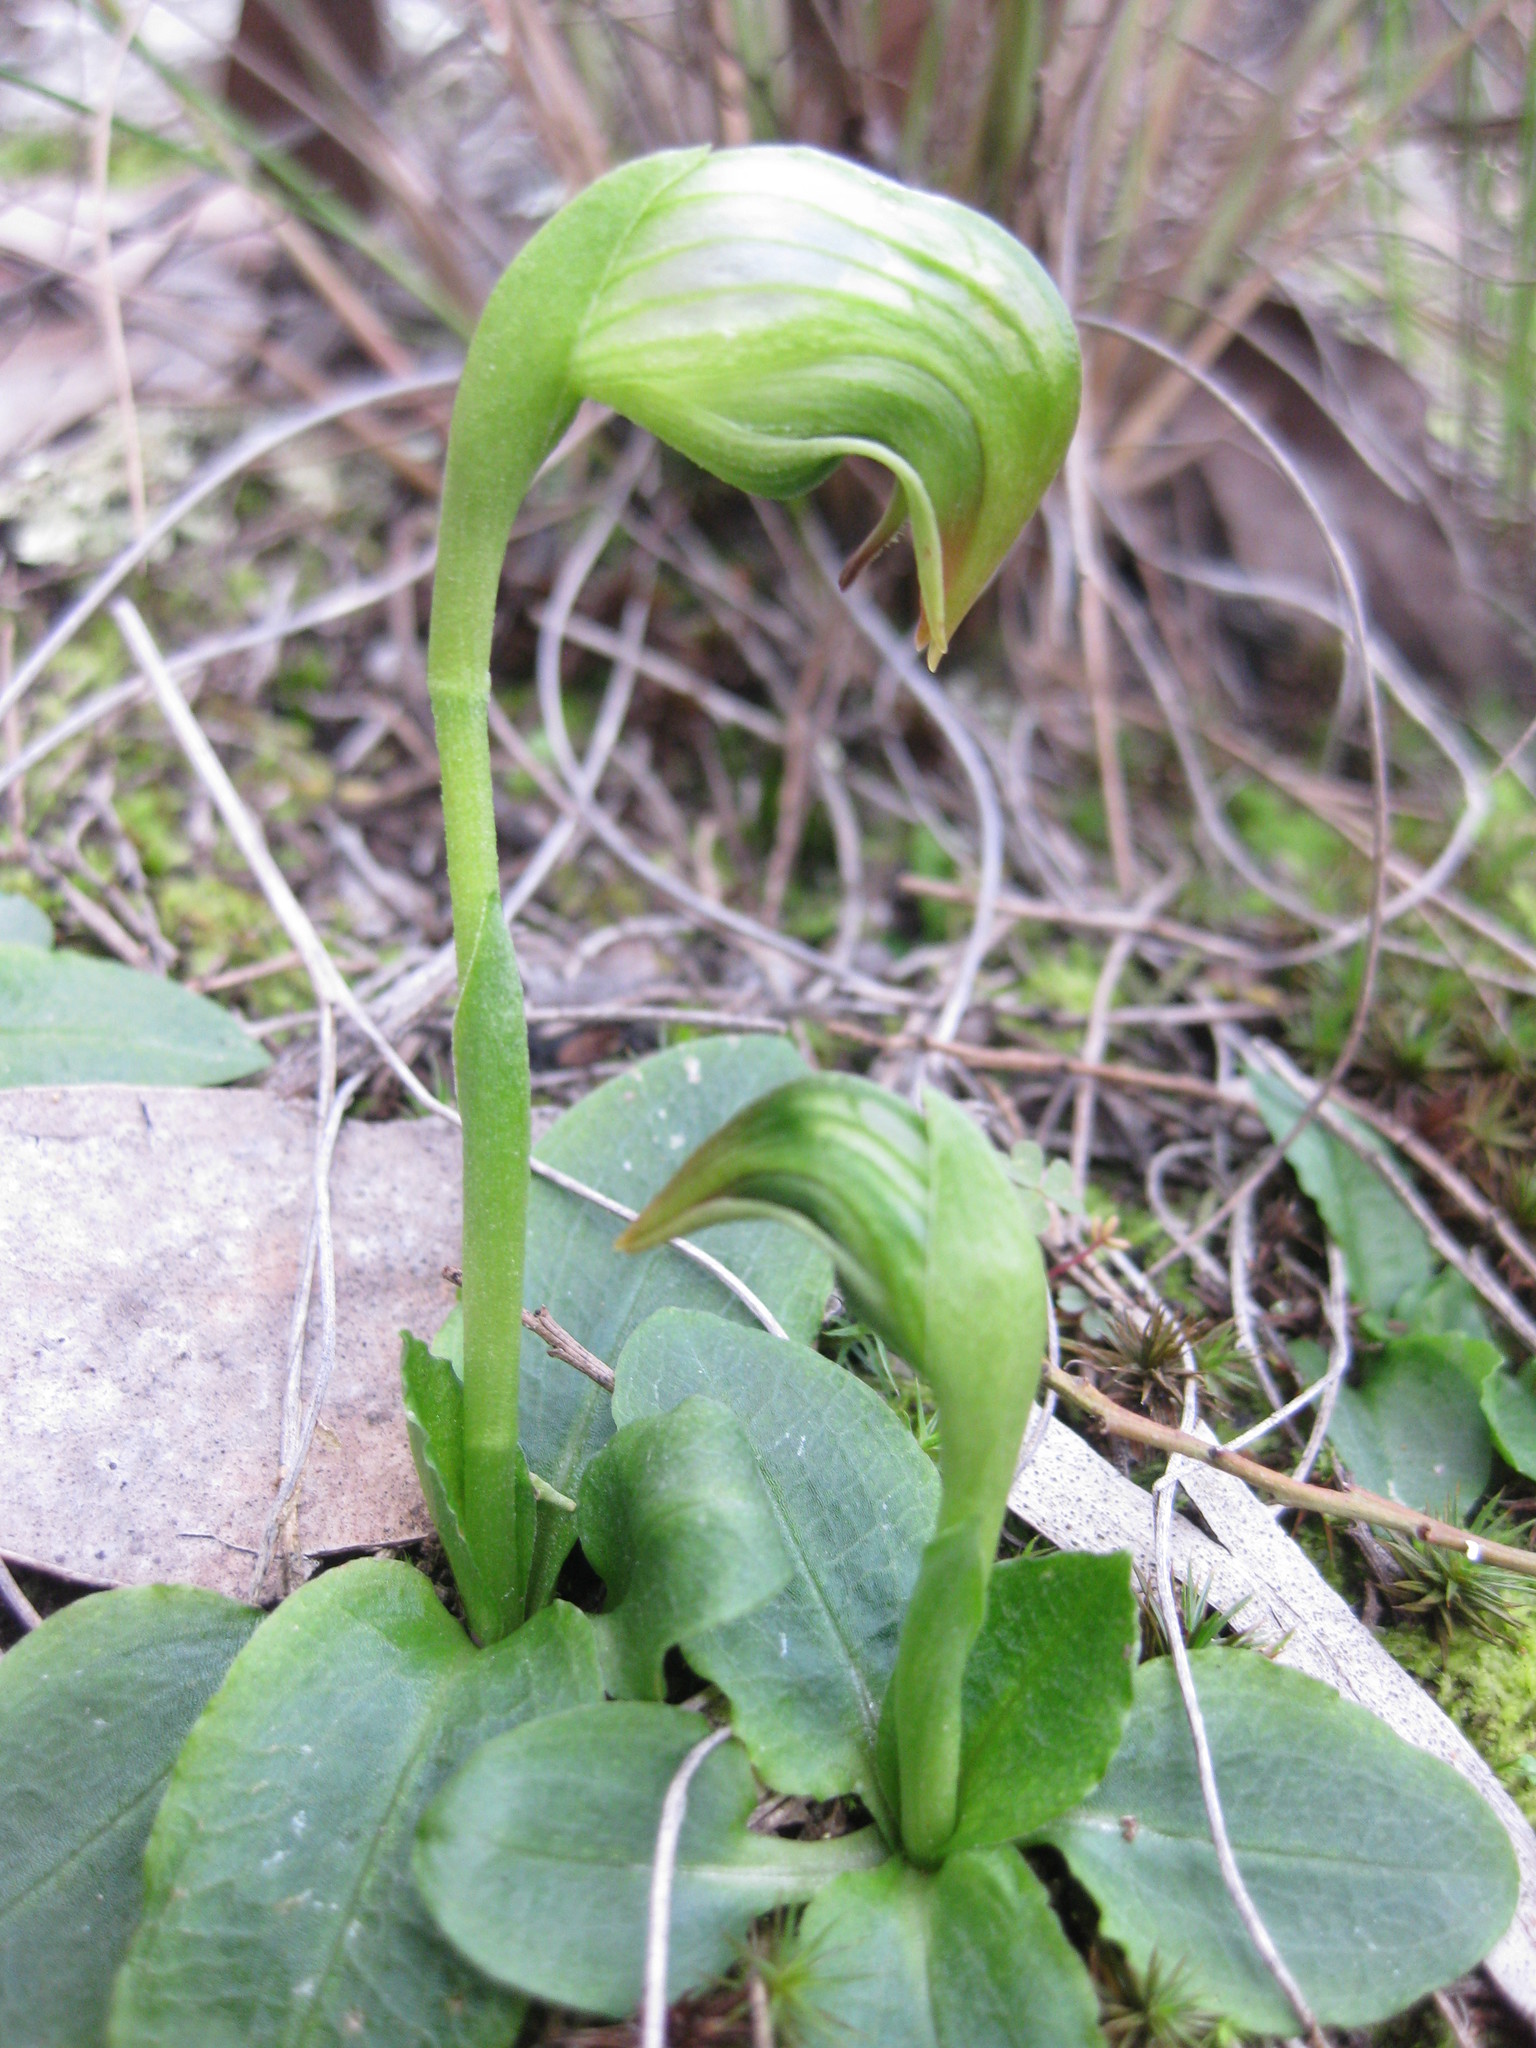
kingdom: Plantae
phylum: Tracheophyta
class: Liliopsida
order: Asparagales
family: Orchidaceae
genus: Pterostylis
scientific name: Pterostylis nutans
